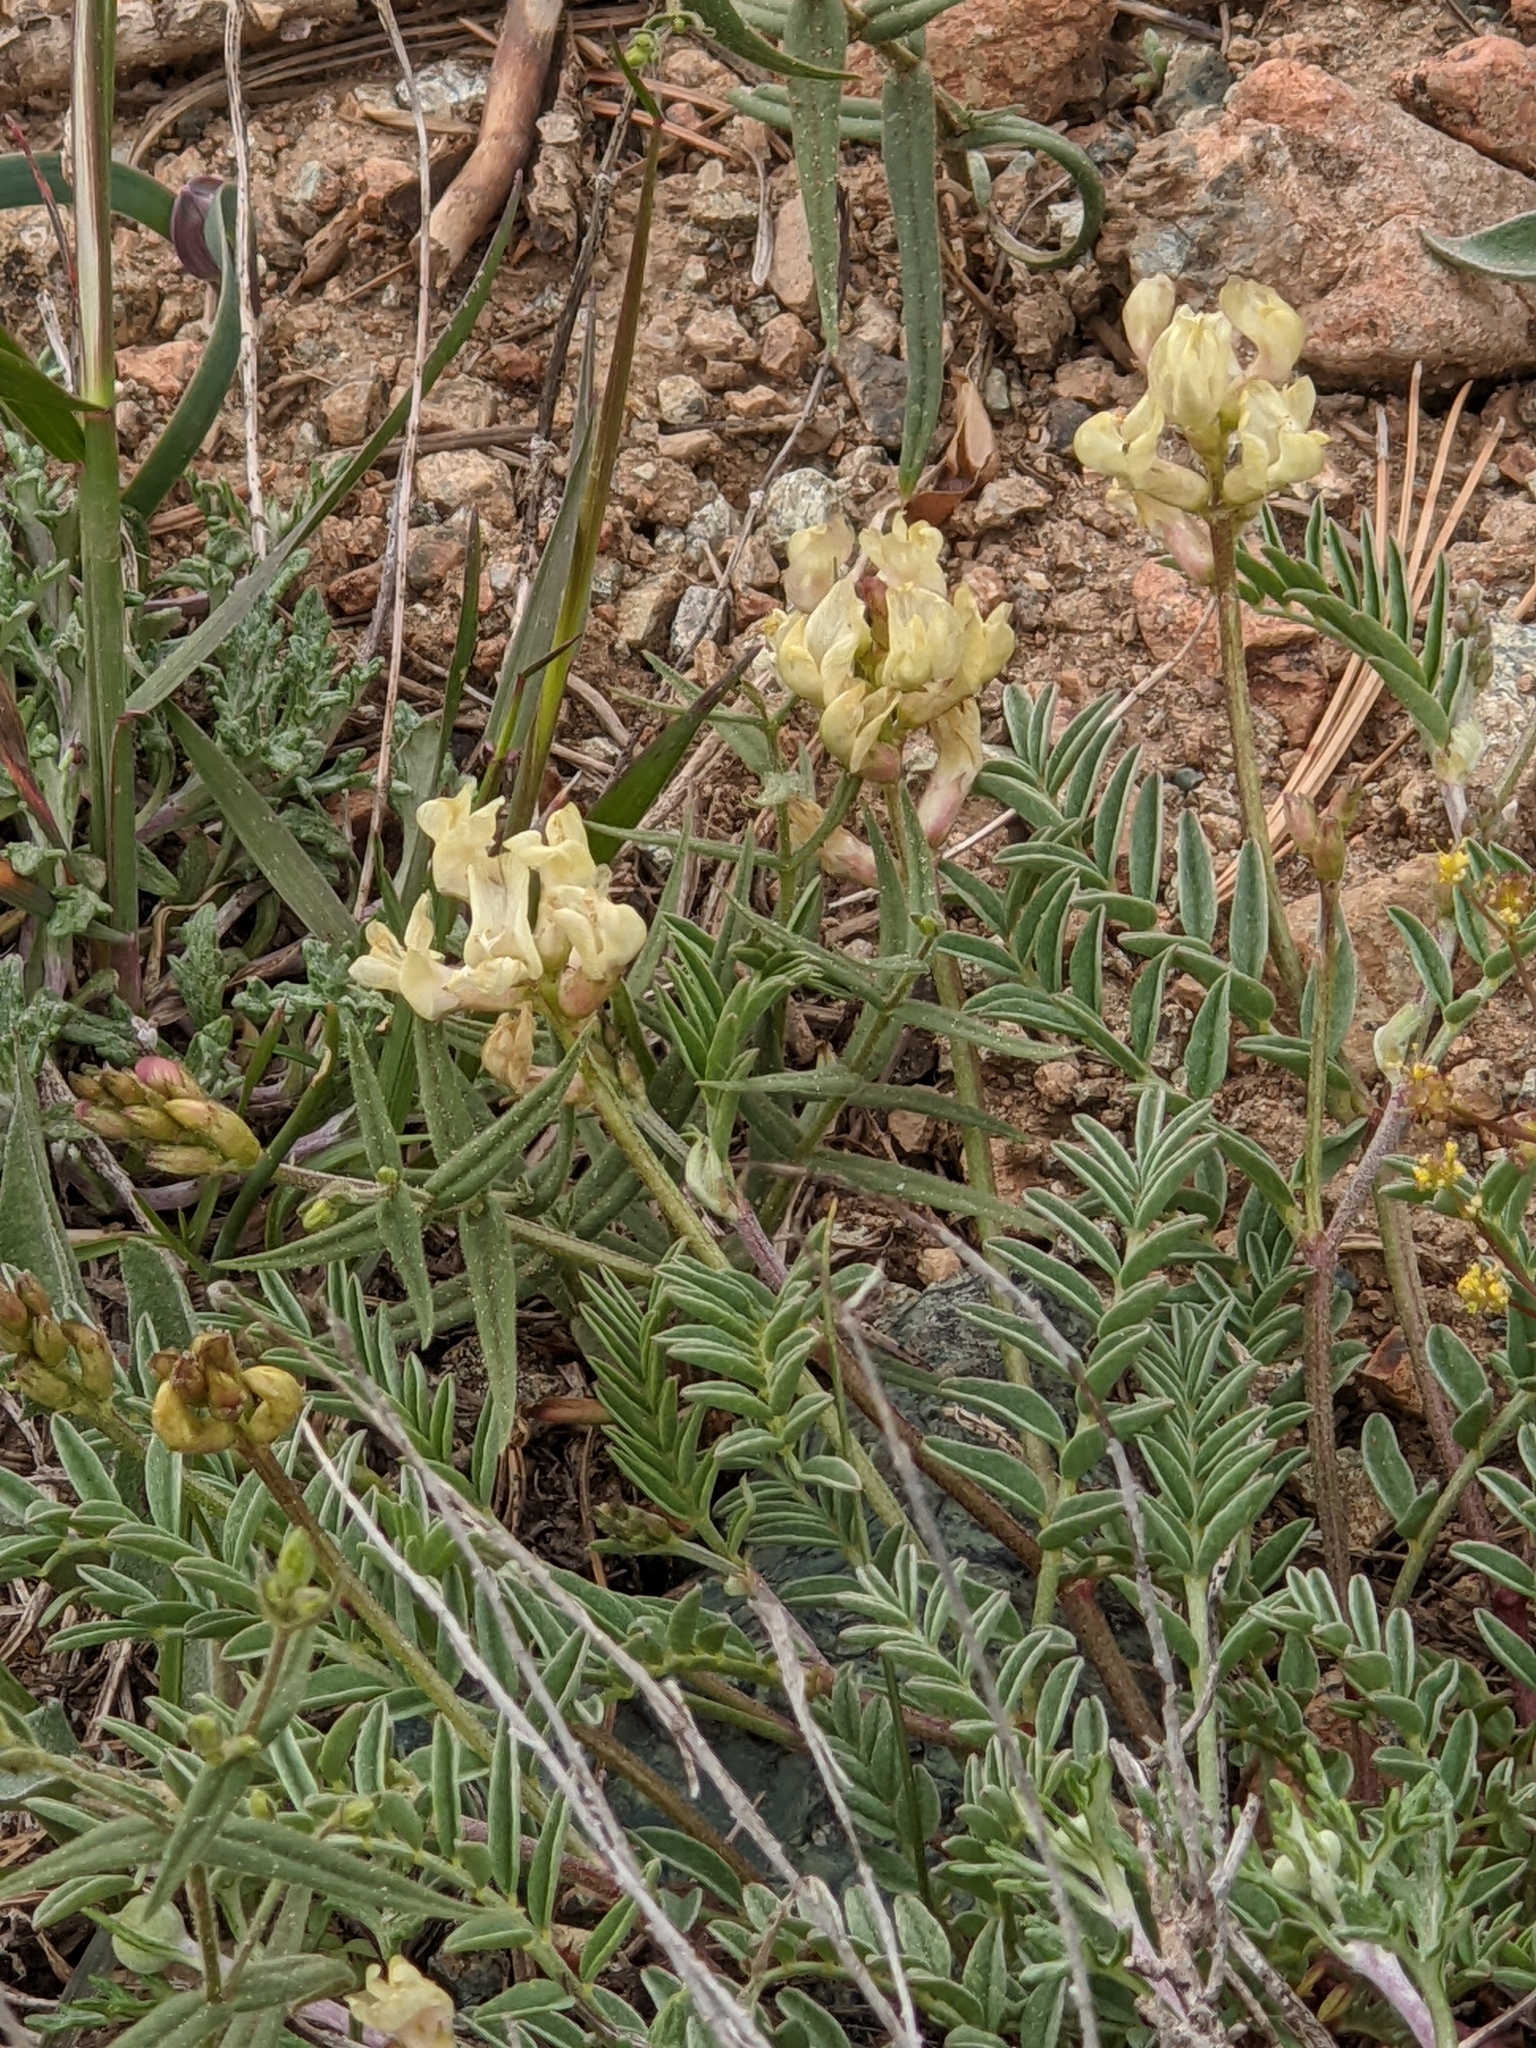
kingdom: Plantae
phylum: Tracheophyta
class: Magnoliopsida
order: Fabales
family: Fabaceae
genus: Astragalus
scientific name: Astragalus whitneyi
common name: Balloonpod milkvetch
